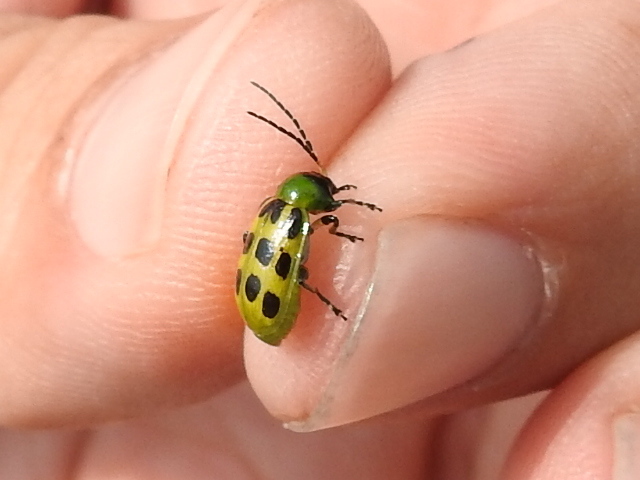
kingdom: Animalia
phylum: Arthropoda
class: Insecta
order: Coleoptera
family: Chrysomelidae
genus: Diabrotica
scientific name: Diabrotica undecimpunctata
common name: Spotted cucumber beetle
